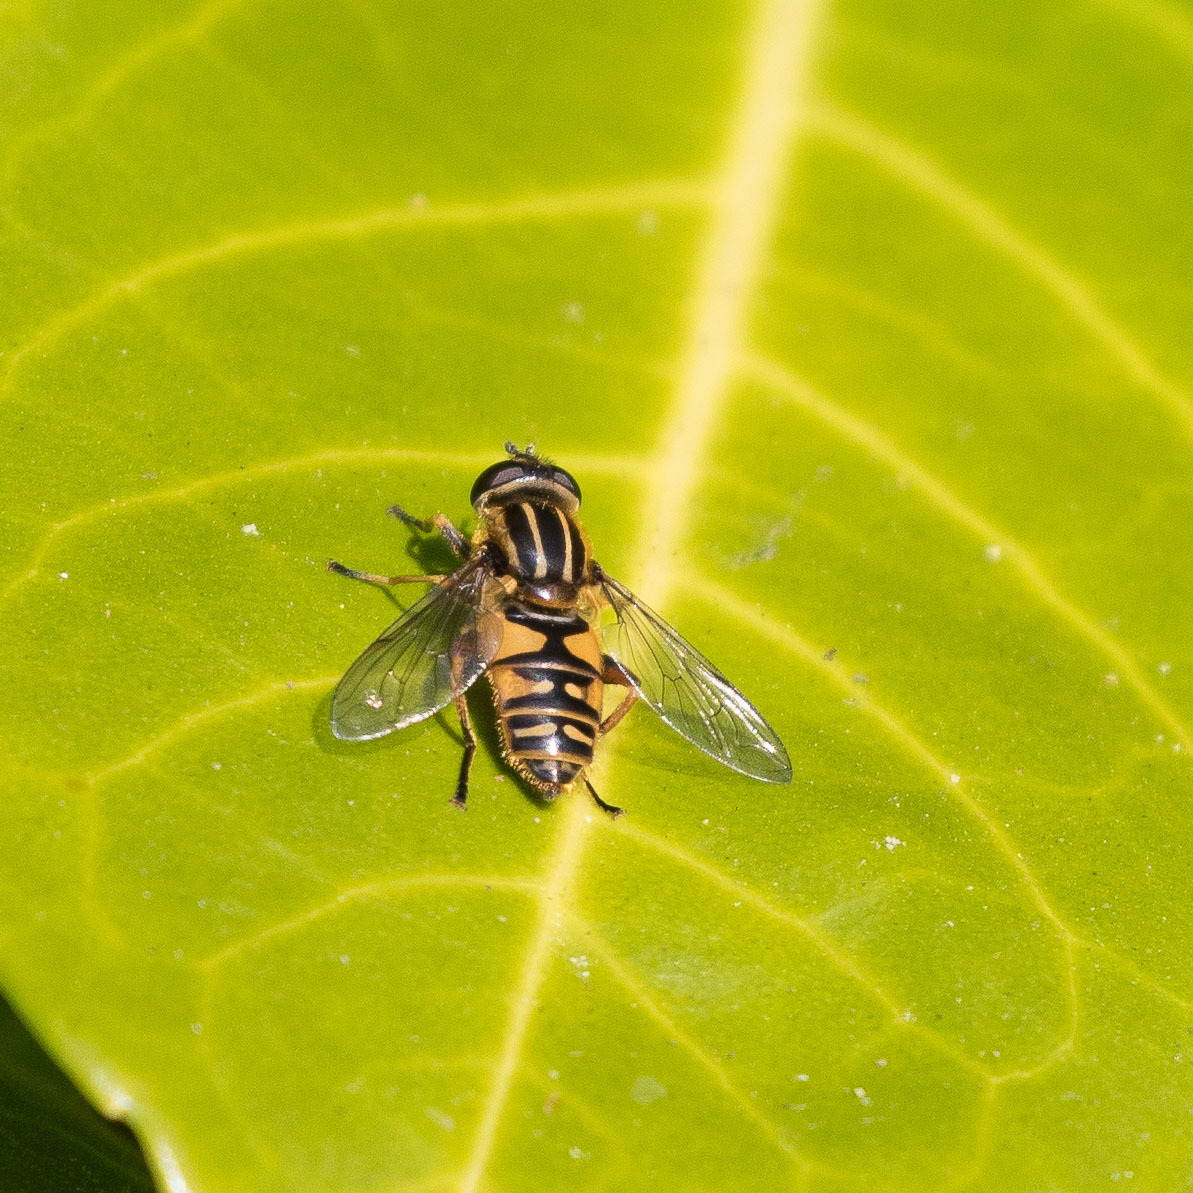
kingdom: Animalia
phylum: Arthropoda
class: Insecta
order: Diptera
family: Syrphidae
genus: Helophilus
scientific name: Helophilus pendulus
